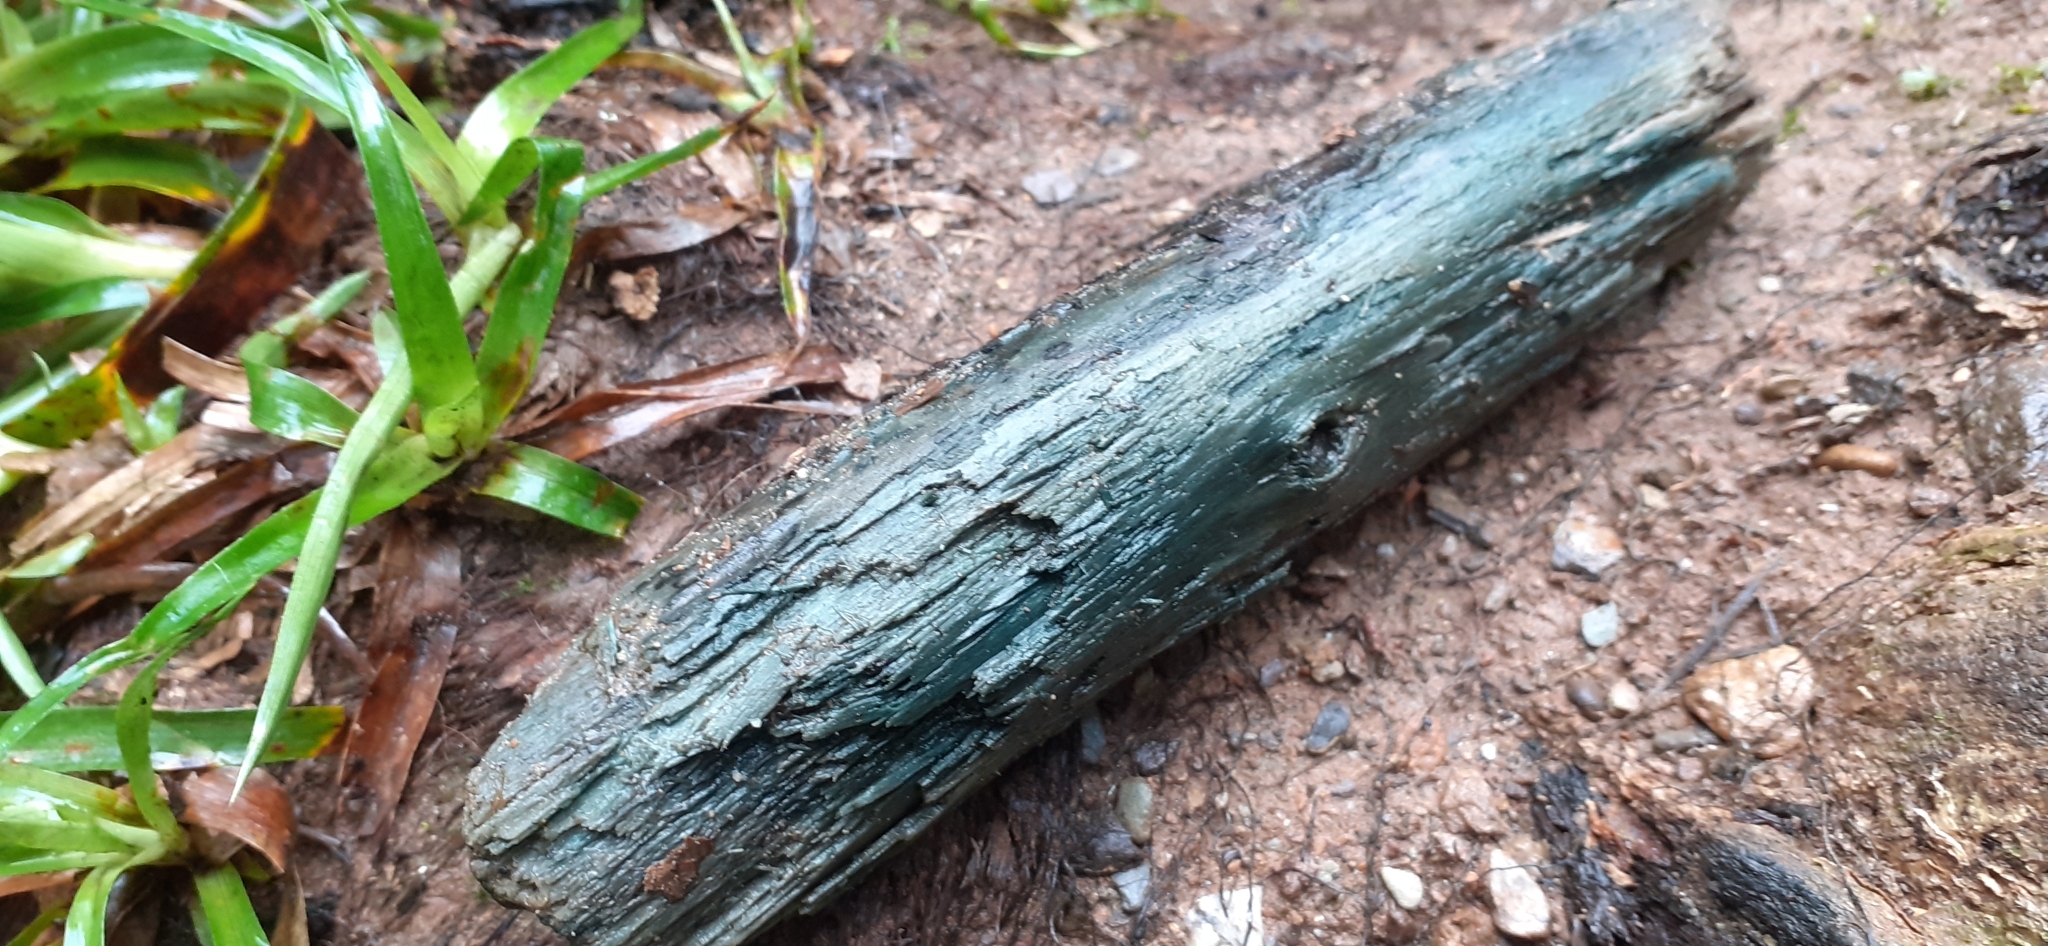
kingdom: Fungi
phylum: Ascomycota
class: Leotiomycetes
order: Helotiales
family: Chlorociboriaceae
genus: Chlorociboria
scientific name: Chlorociboria
